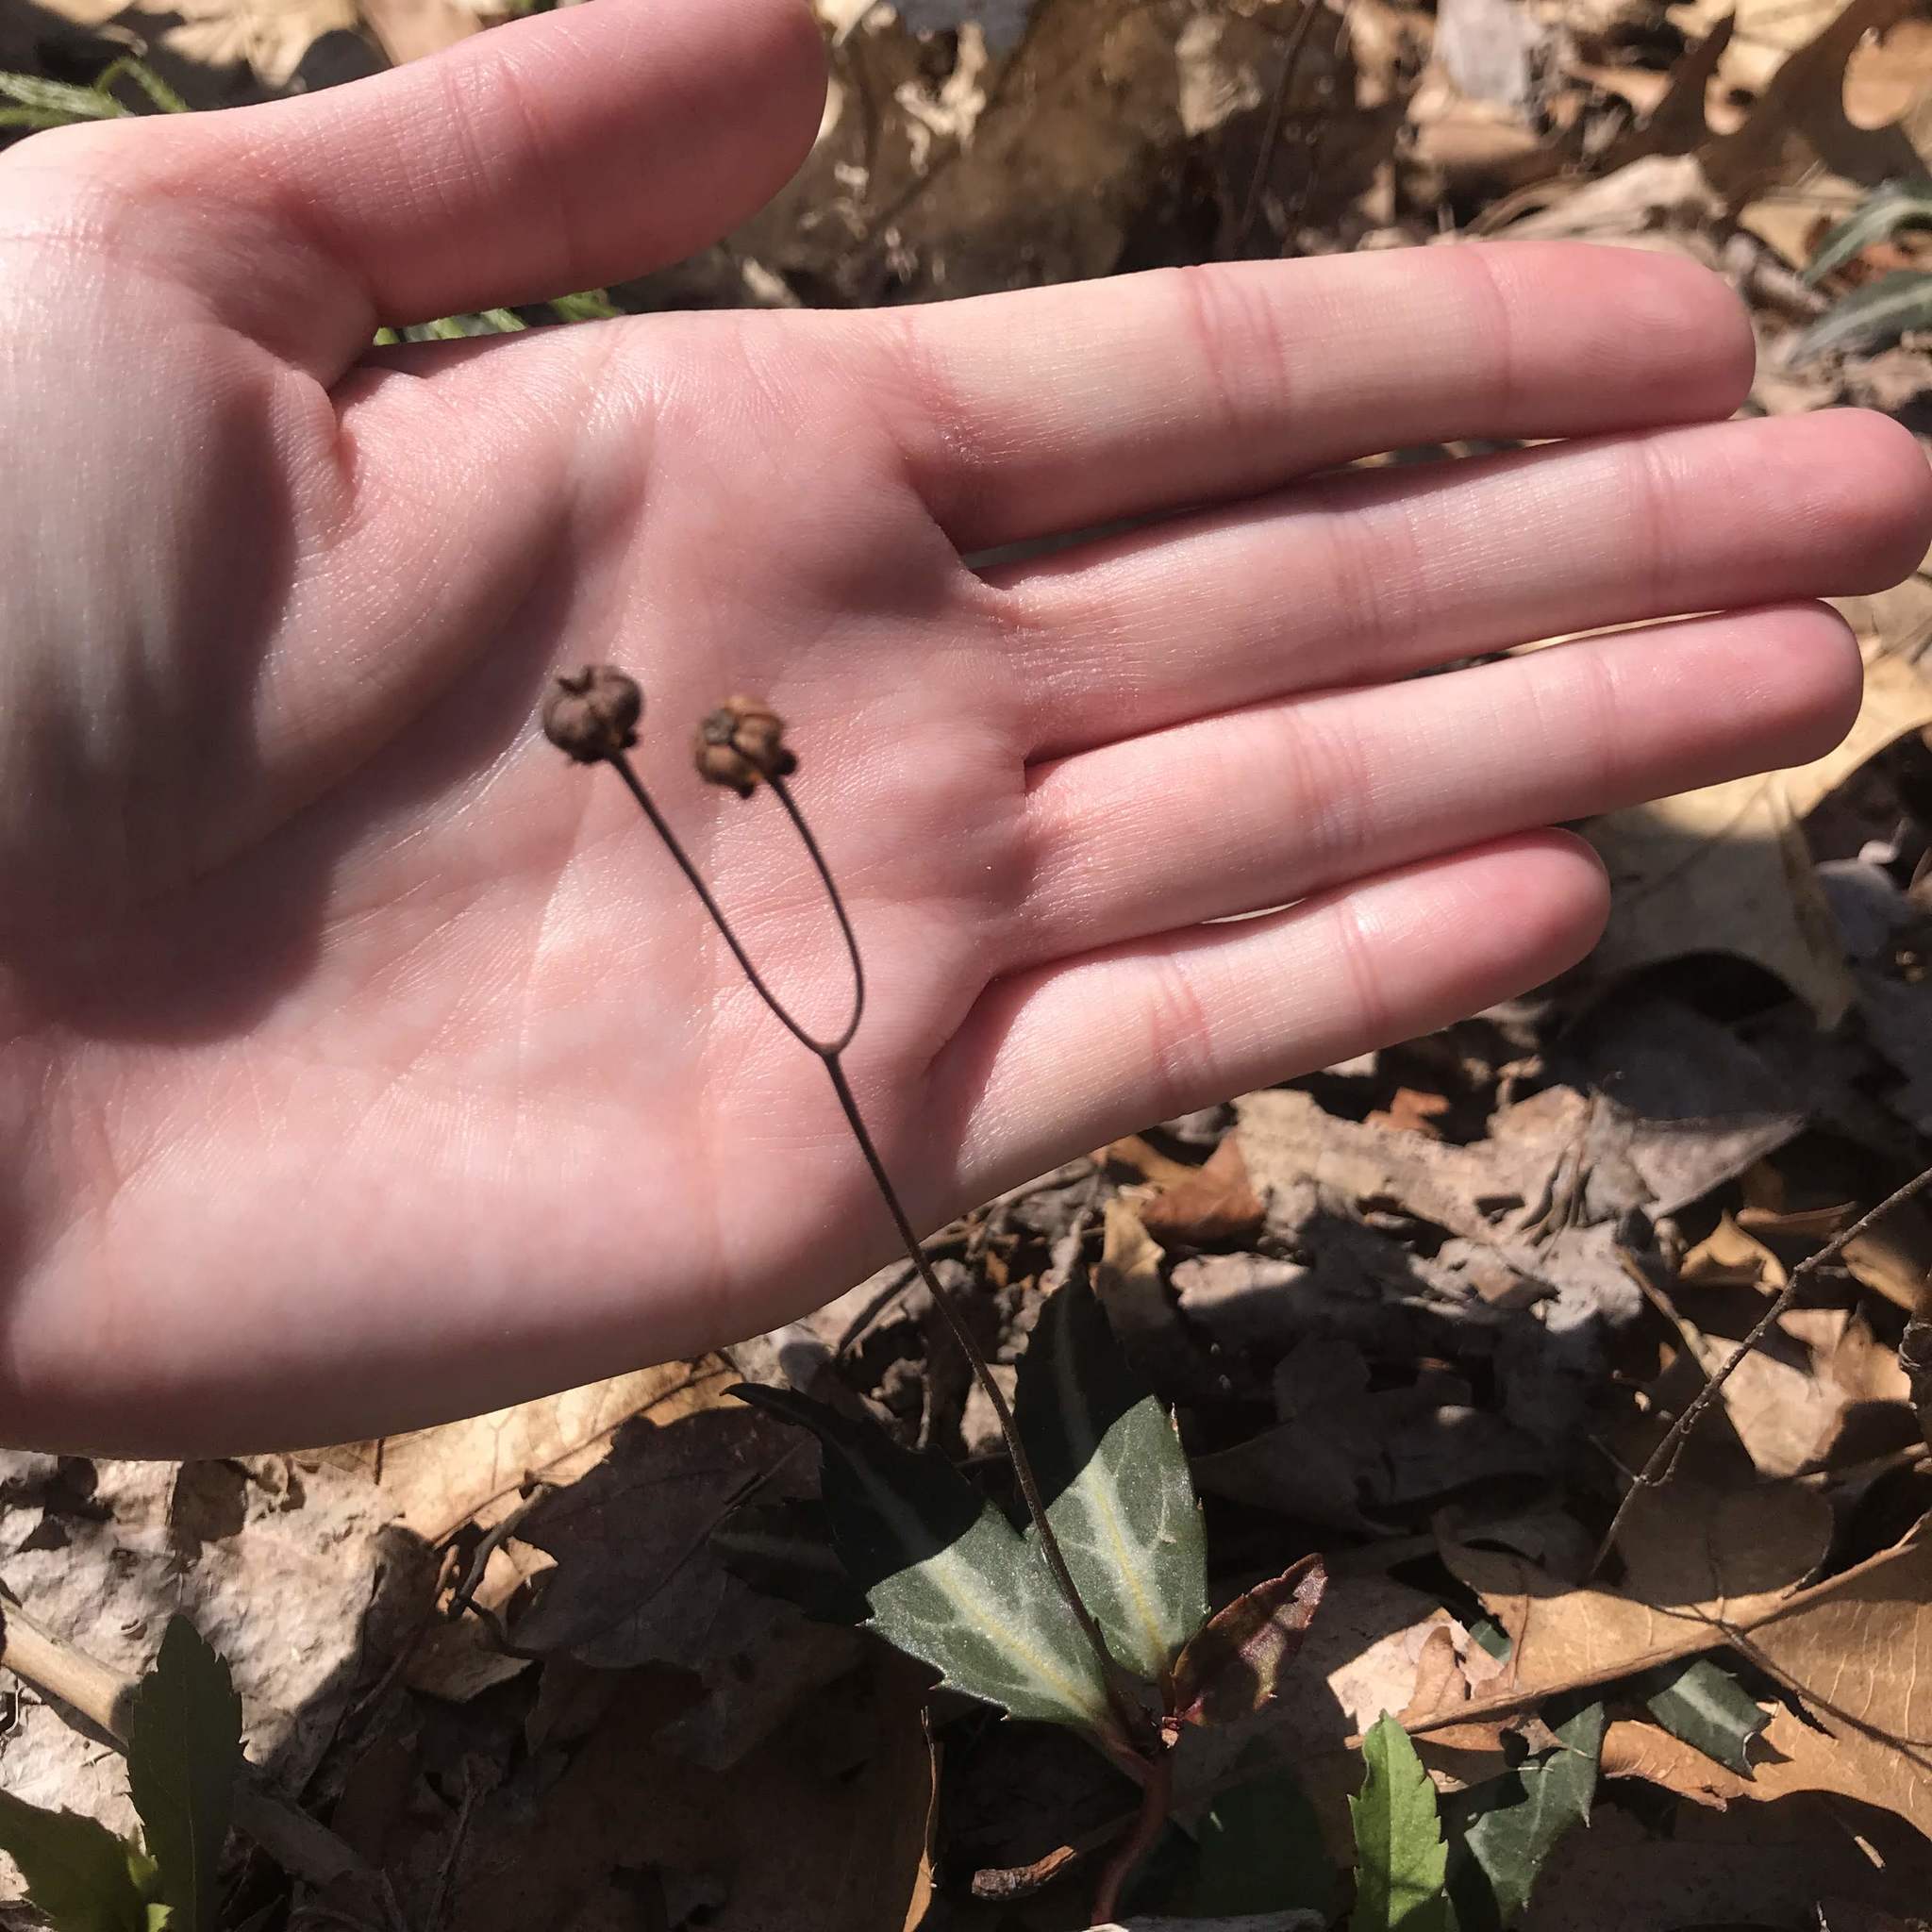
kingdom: Plantae
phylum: Tracheophyta
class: Magnoliopsida
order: Ericales
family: Ericaceae
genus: Chimaphila
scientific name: Chimaphila maculata
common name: Spotted pipsissewa
